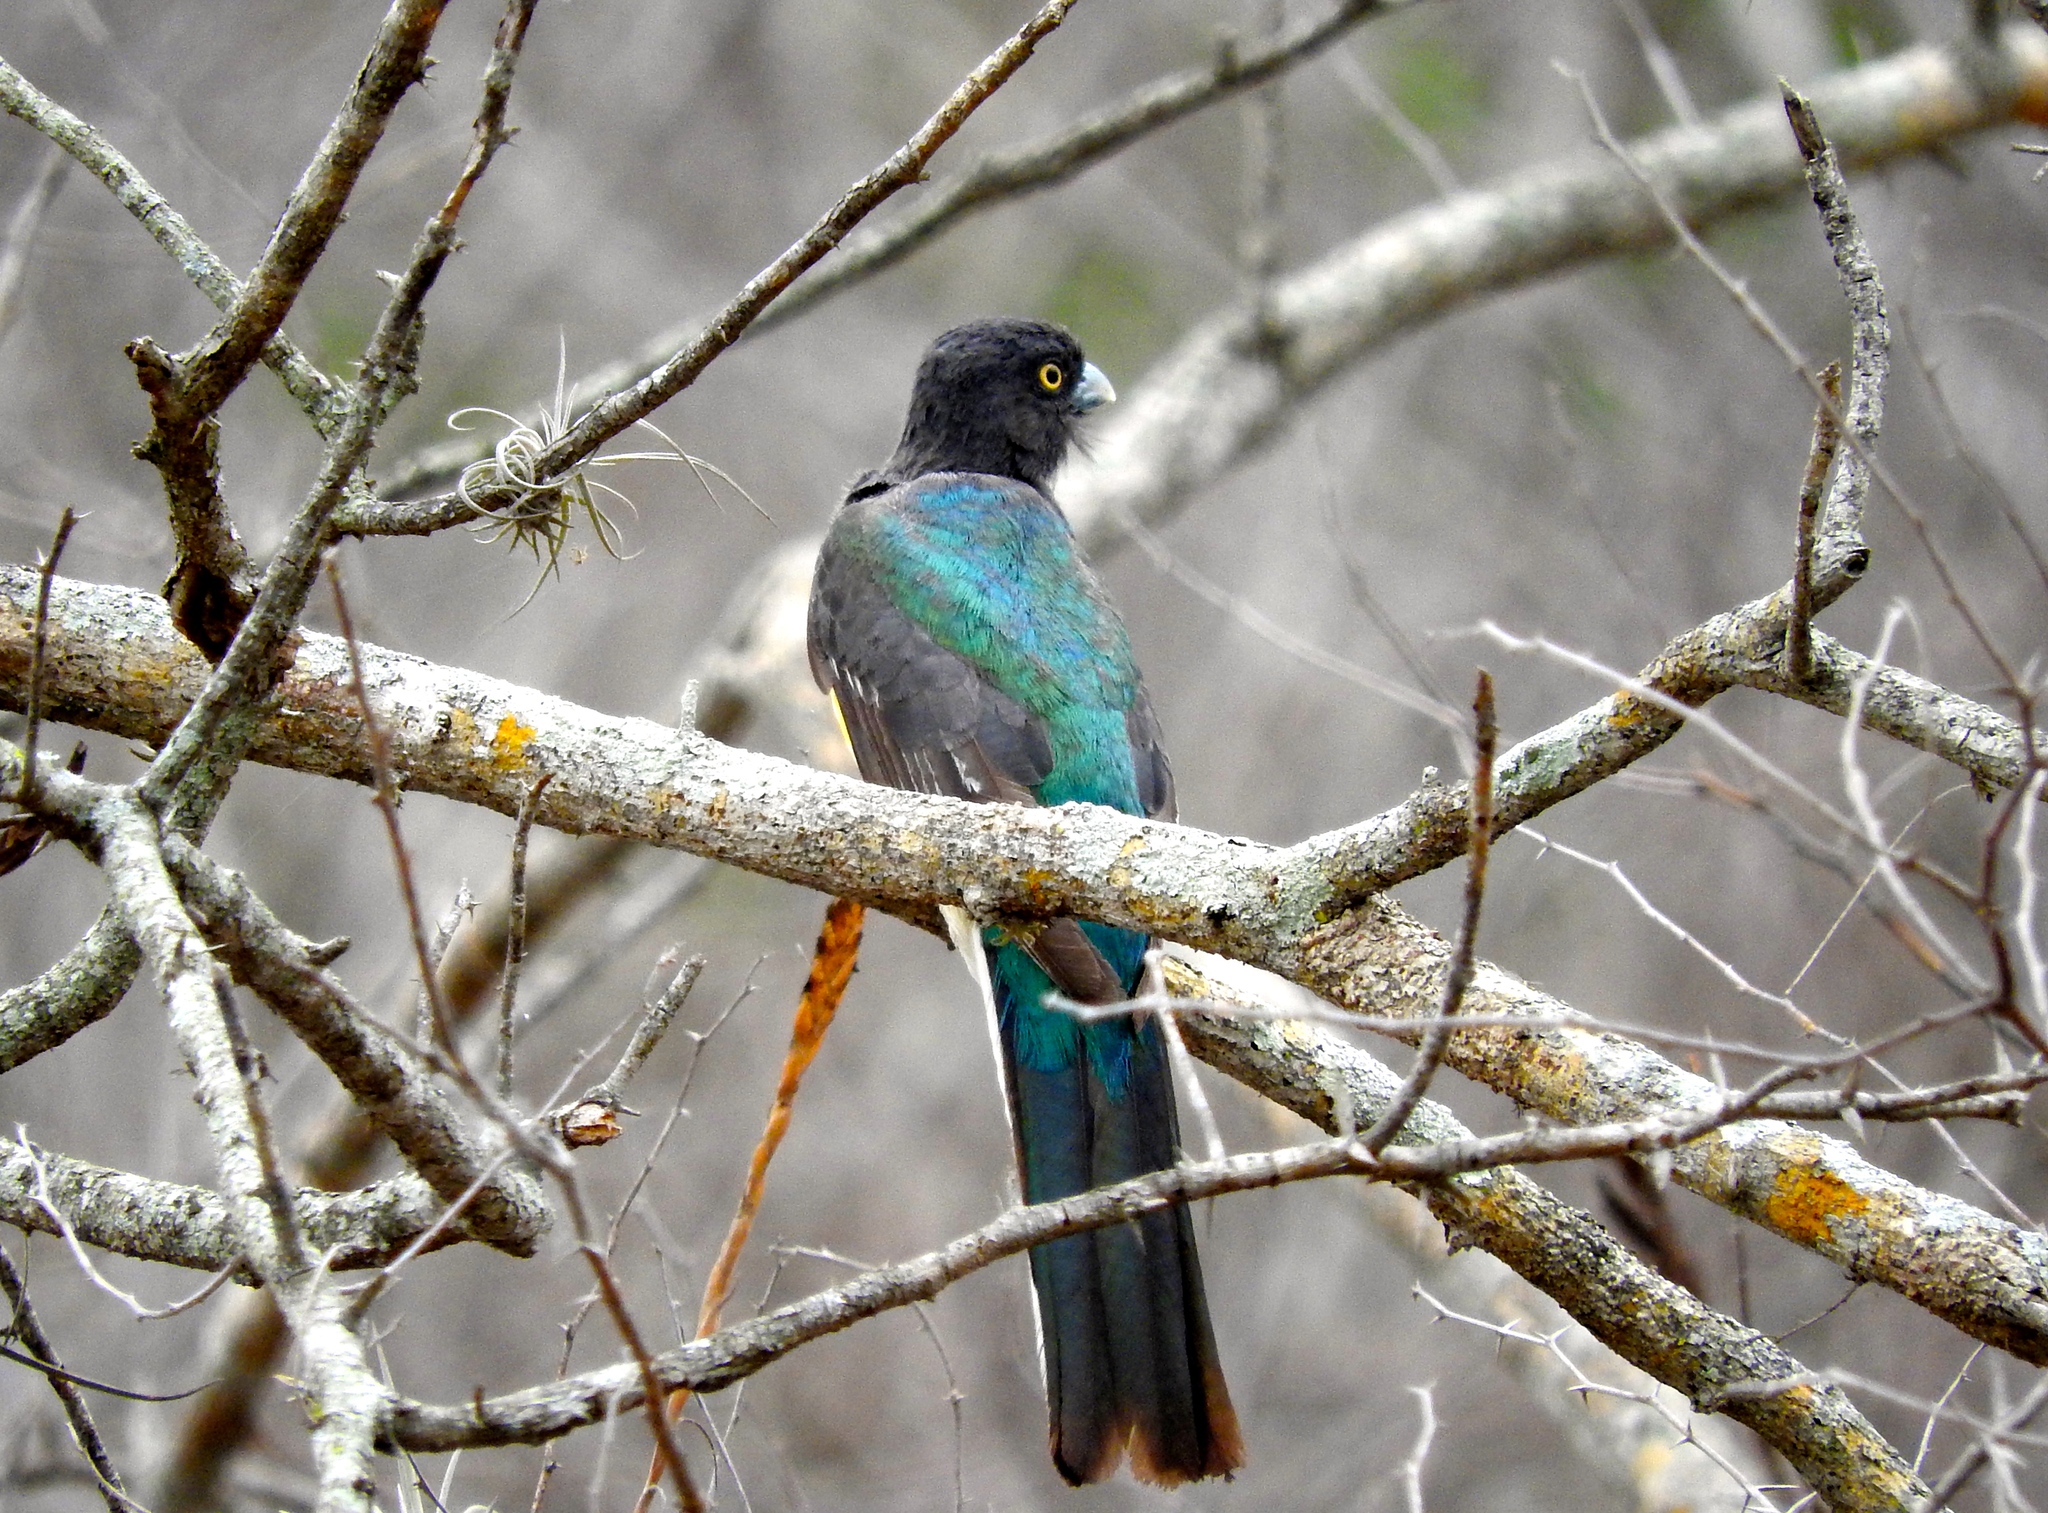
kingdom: Animalia
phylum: Chordata
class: Aves
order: Trogoniformes
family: Trogonidae
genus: Trogon
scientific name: Trogon citreolus
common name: Citreoline trogon
